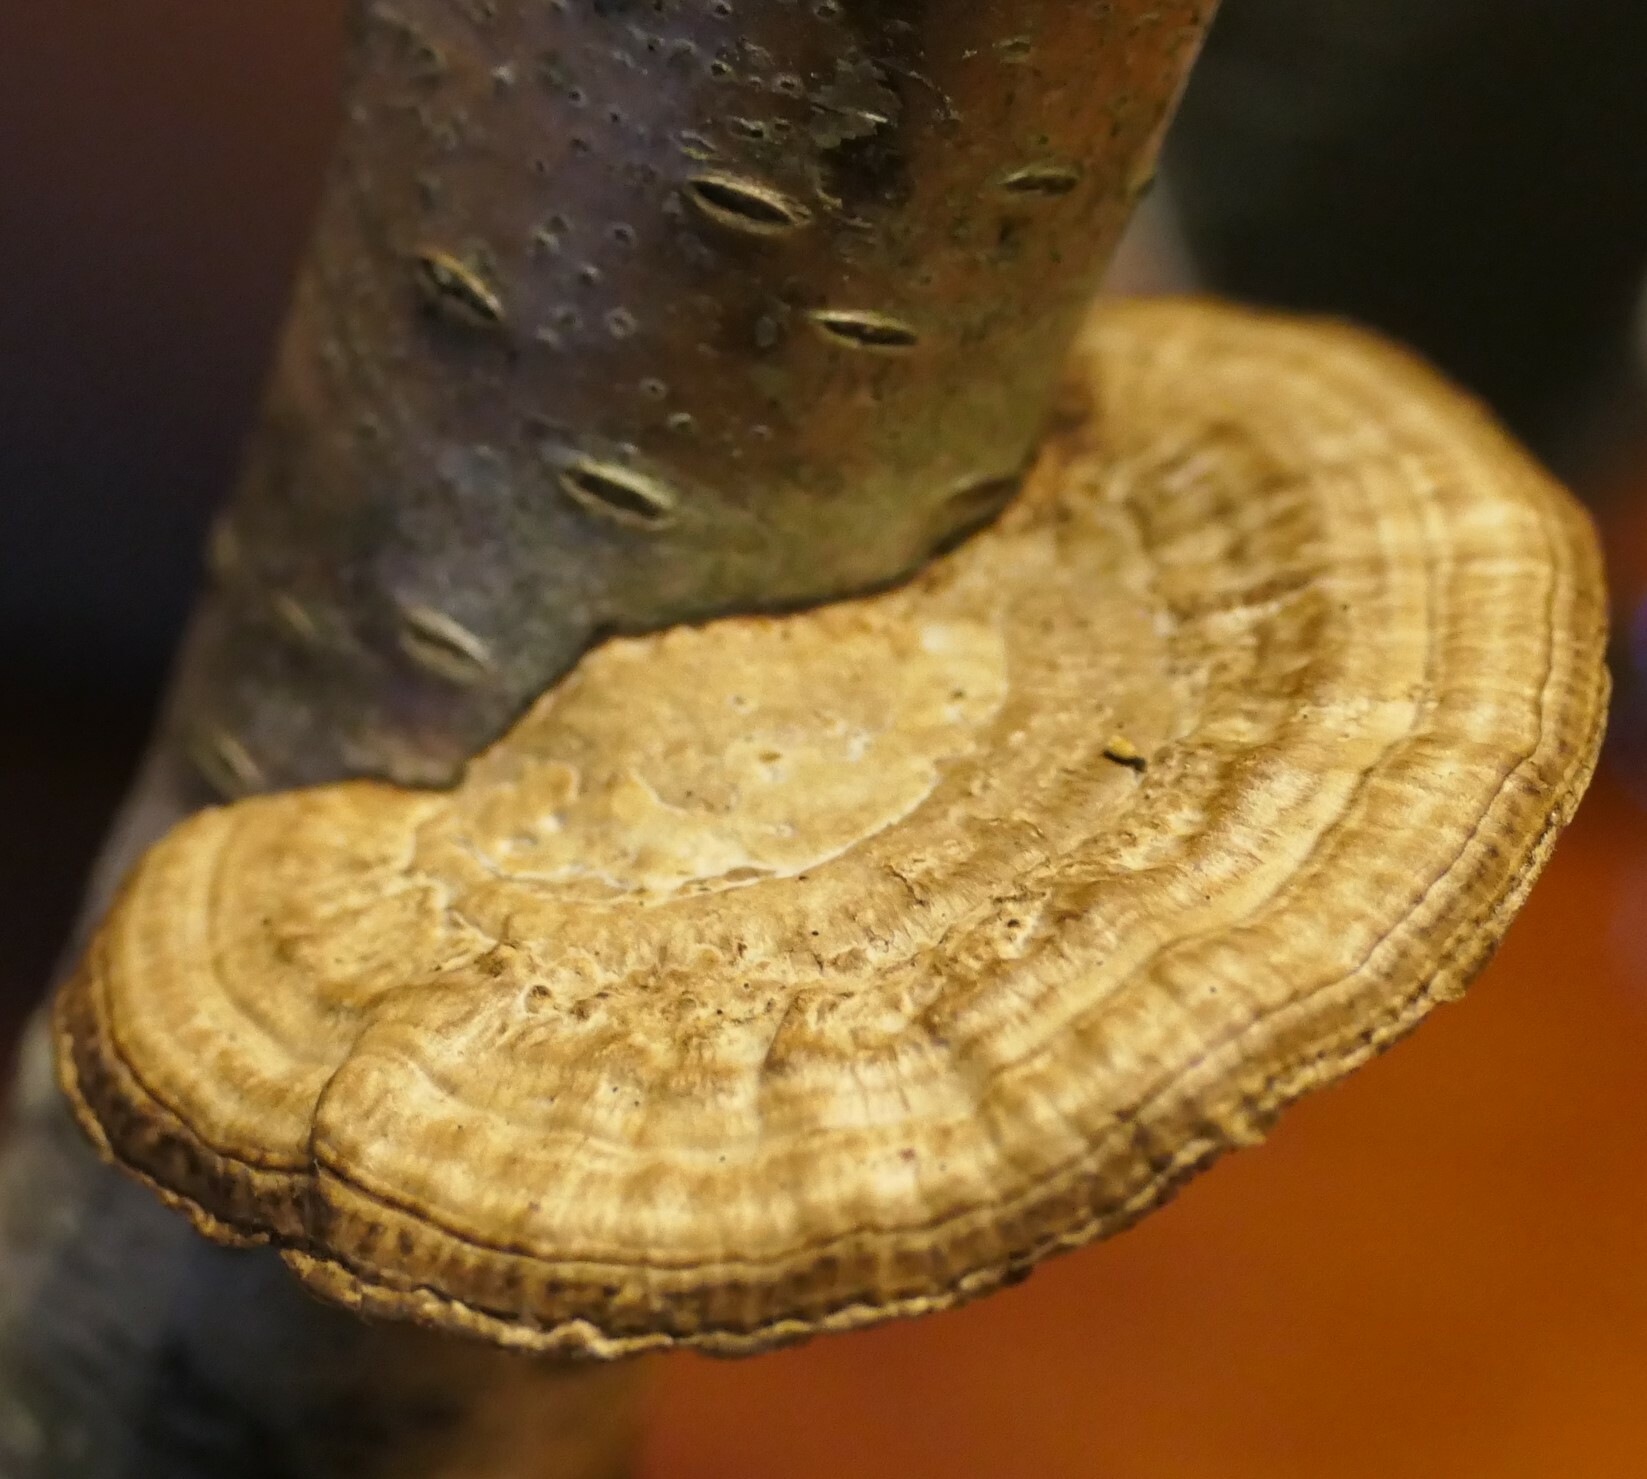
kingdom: Fungi
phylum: Basidiomycota
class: Agaricomycetes
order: Polyporales
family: Polyporaceae
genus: Lenzites
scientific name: Lenzites betulinus
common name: Birch mazegill
